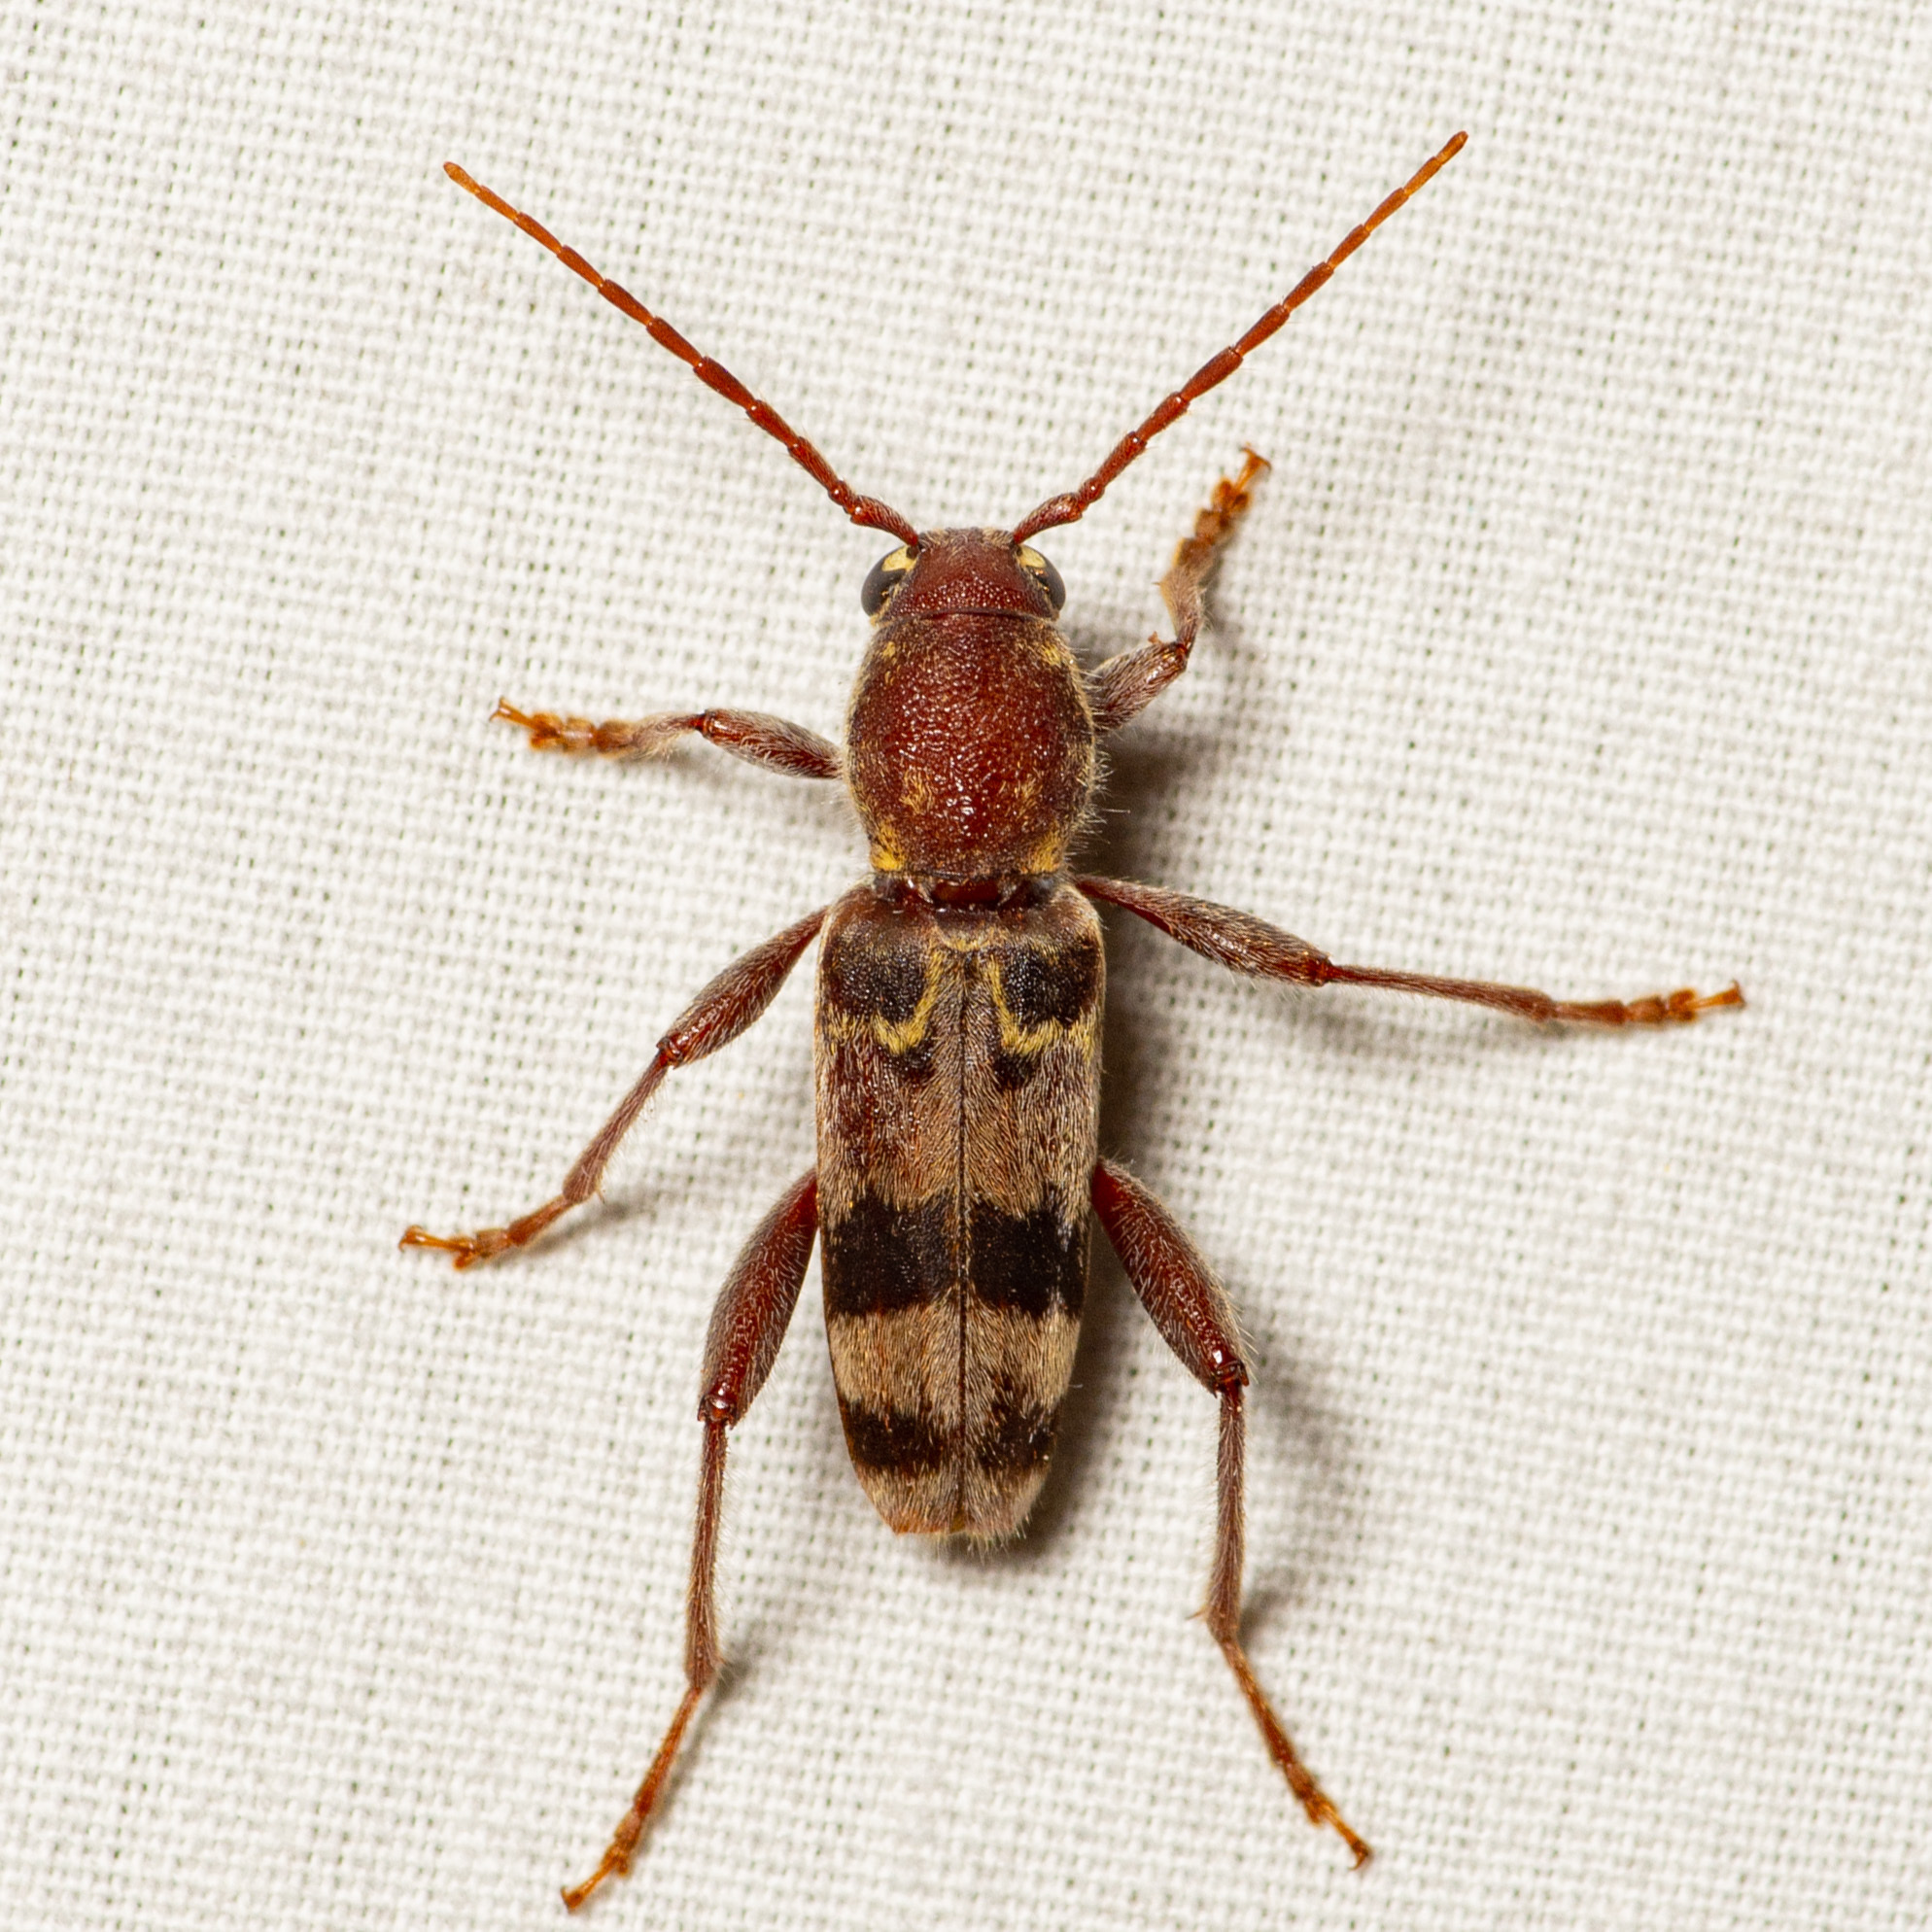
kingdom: Animalia
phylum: Arthropoda
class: Insecta
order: Coleoptera
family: Cerambycidae
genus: Xylotrechus
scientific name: Xylotrechus colonus
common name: Long-horned beetle
